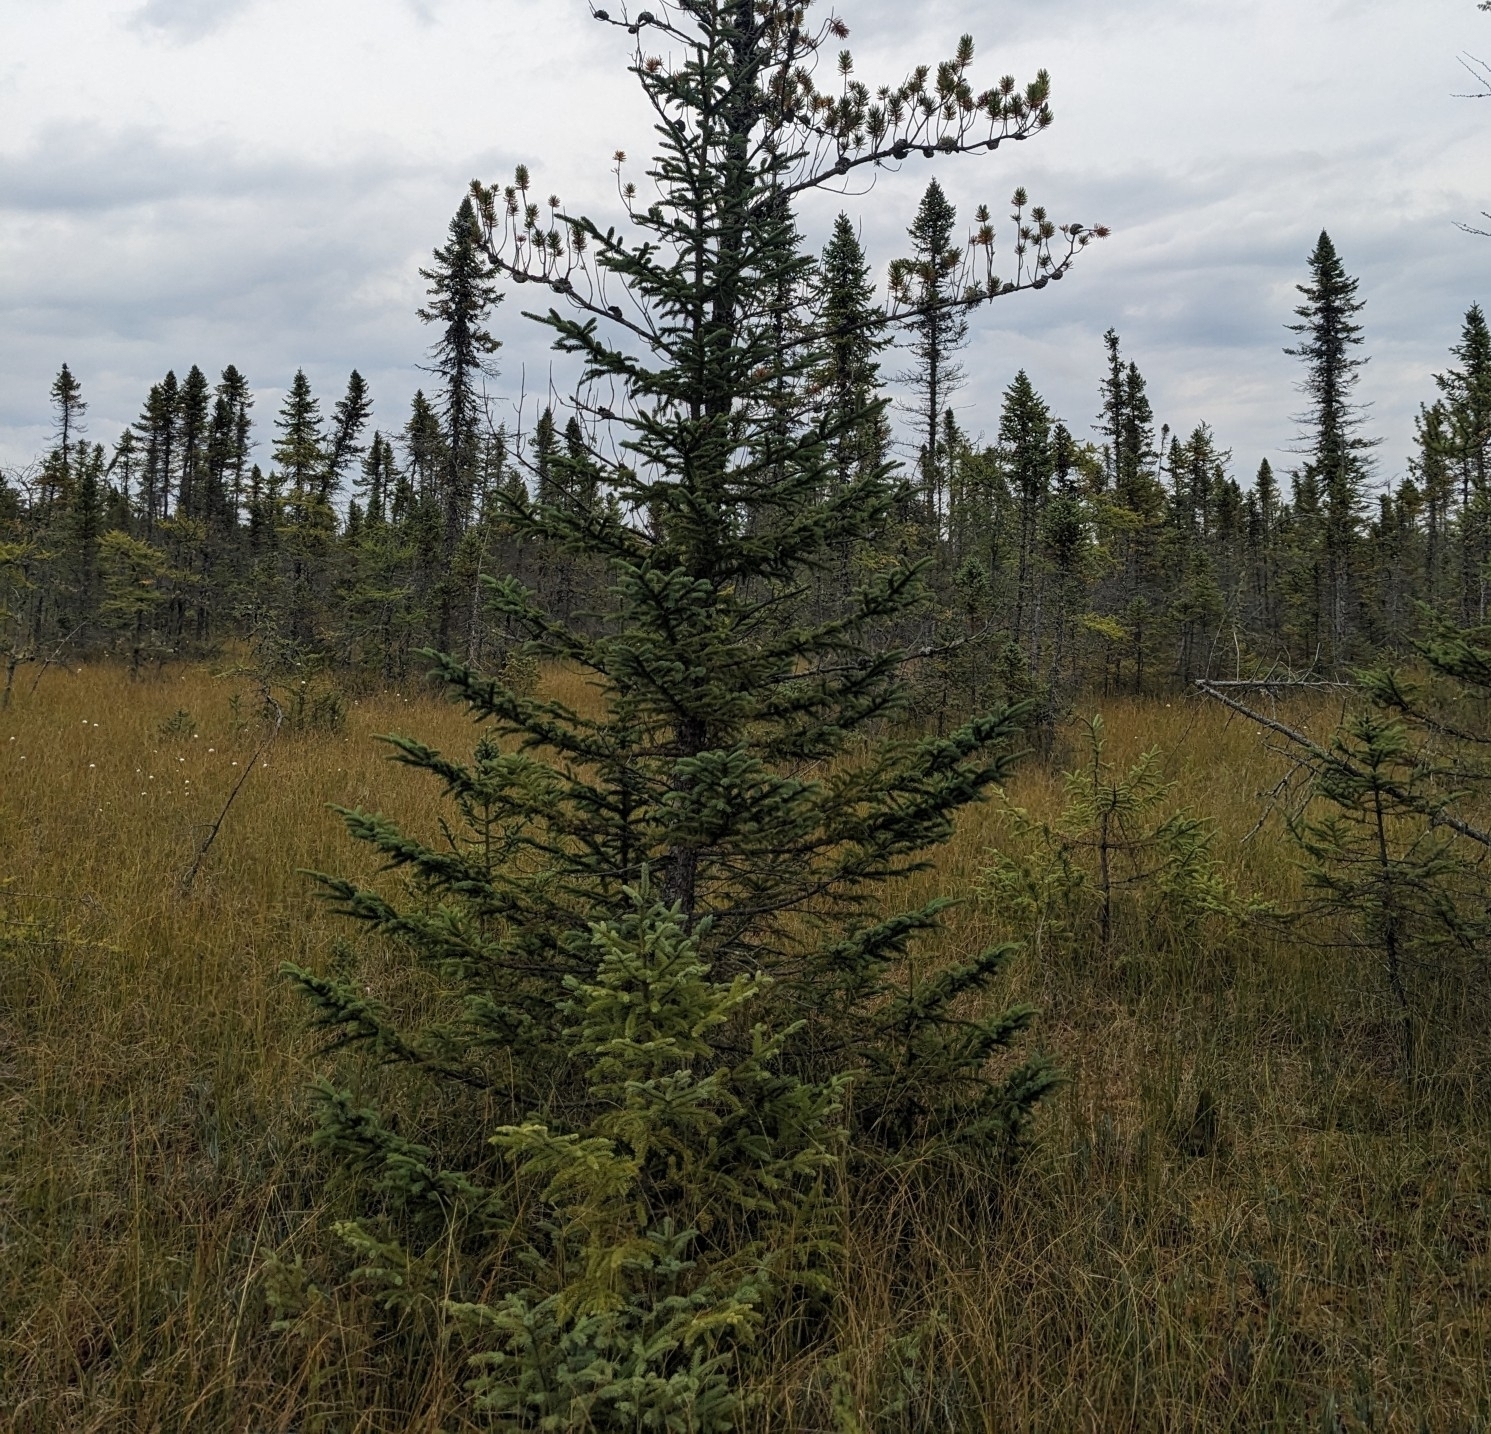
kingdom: Plantae
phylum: Tracheophyta
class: Pinopsida
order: Pinales
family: Pinaceae
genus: Picea
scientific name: Picea mariana
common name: Black spruce
